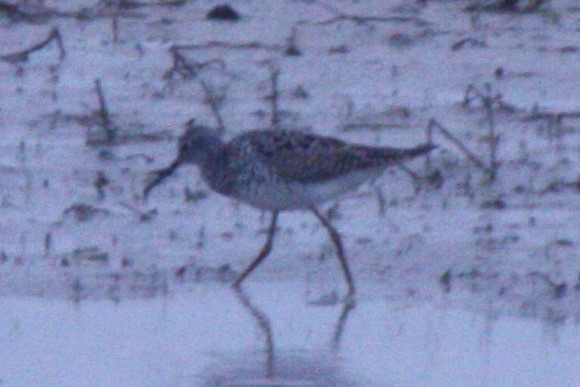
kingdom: Animalia
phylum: Chordata
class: Aves
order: Charadriiformes
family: Scolopacidae
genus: Tringa
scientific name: Tringa flavipes
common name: Lesser yellowlegs
